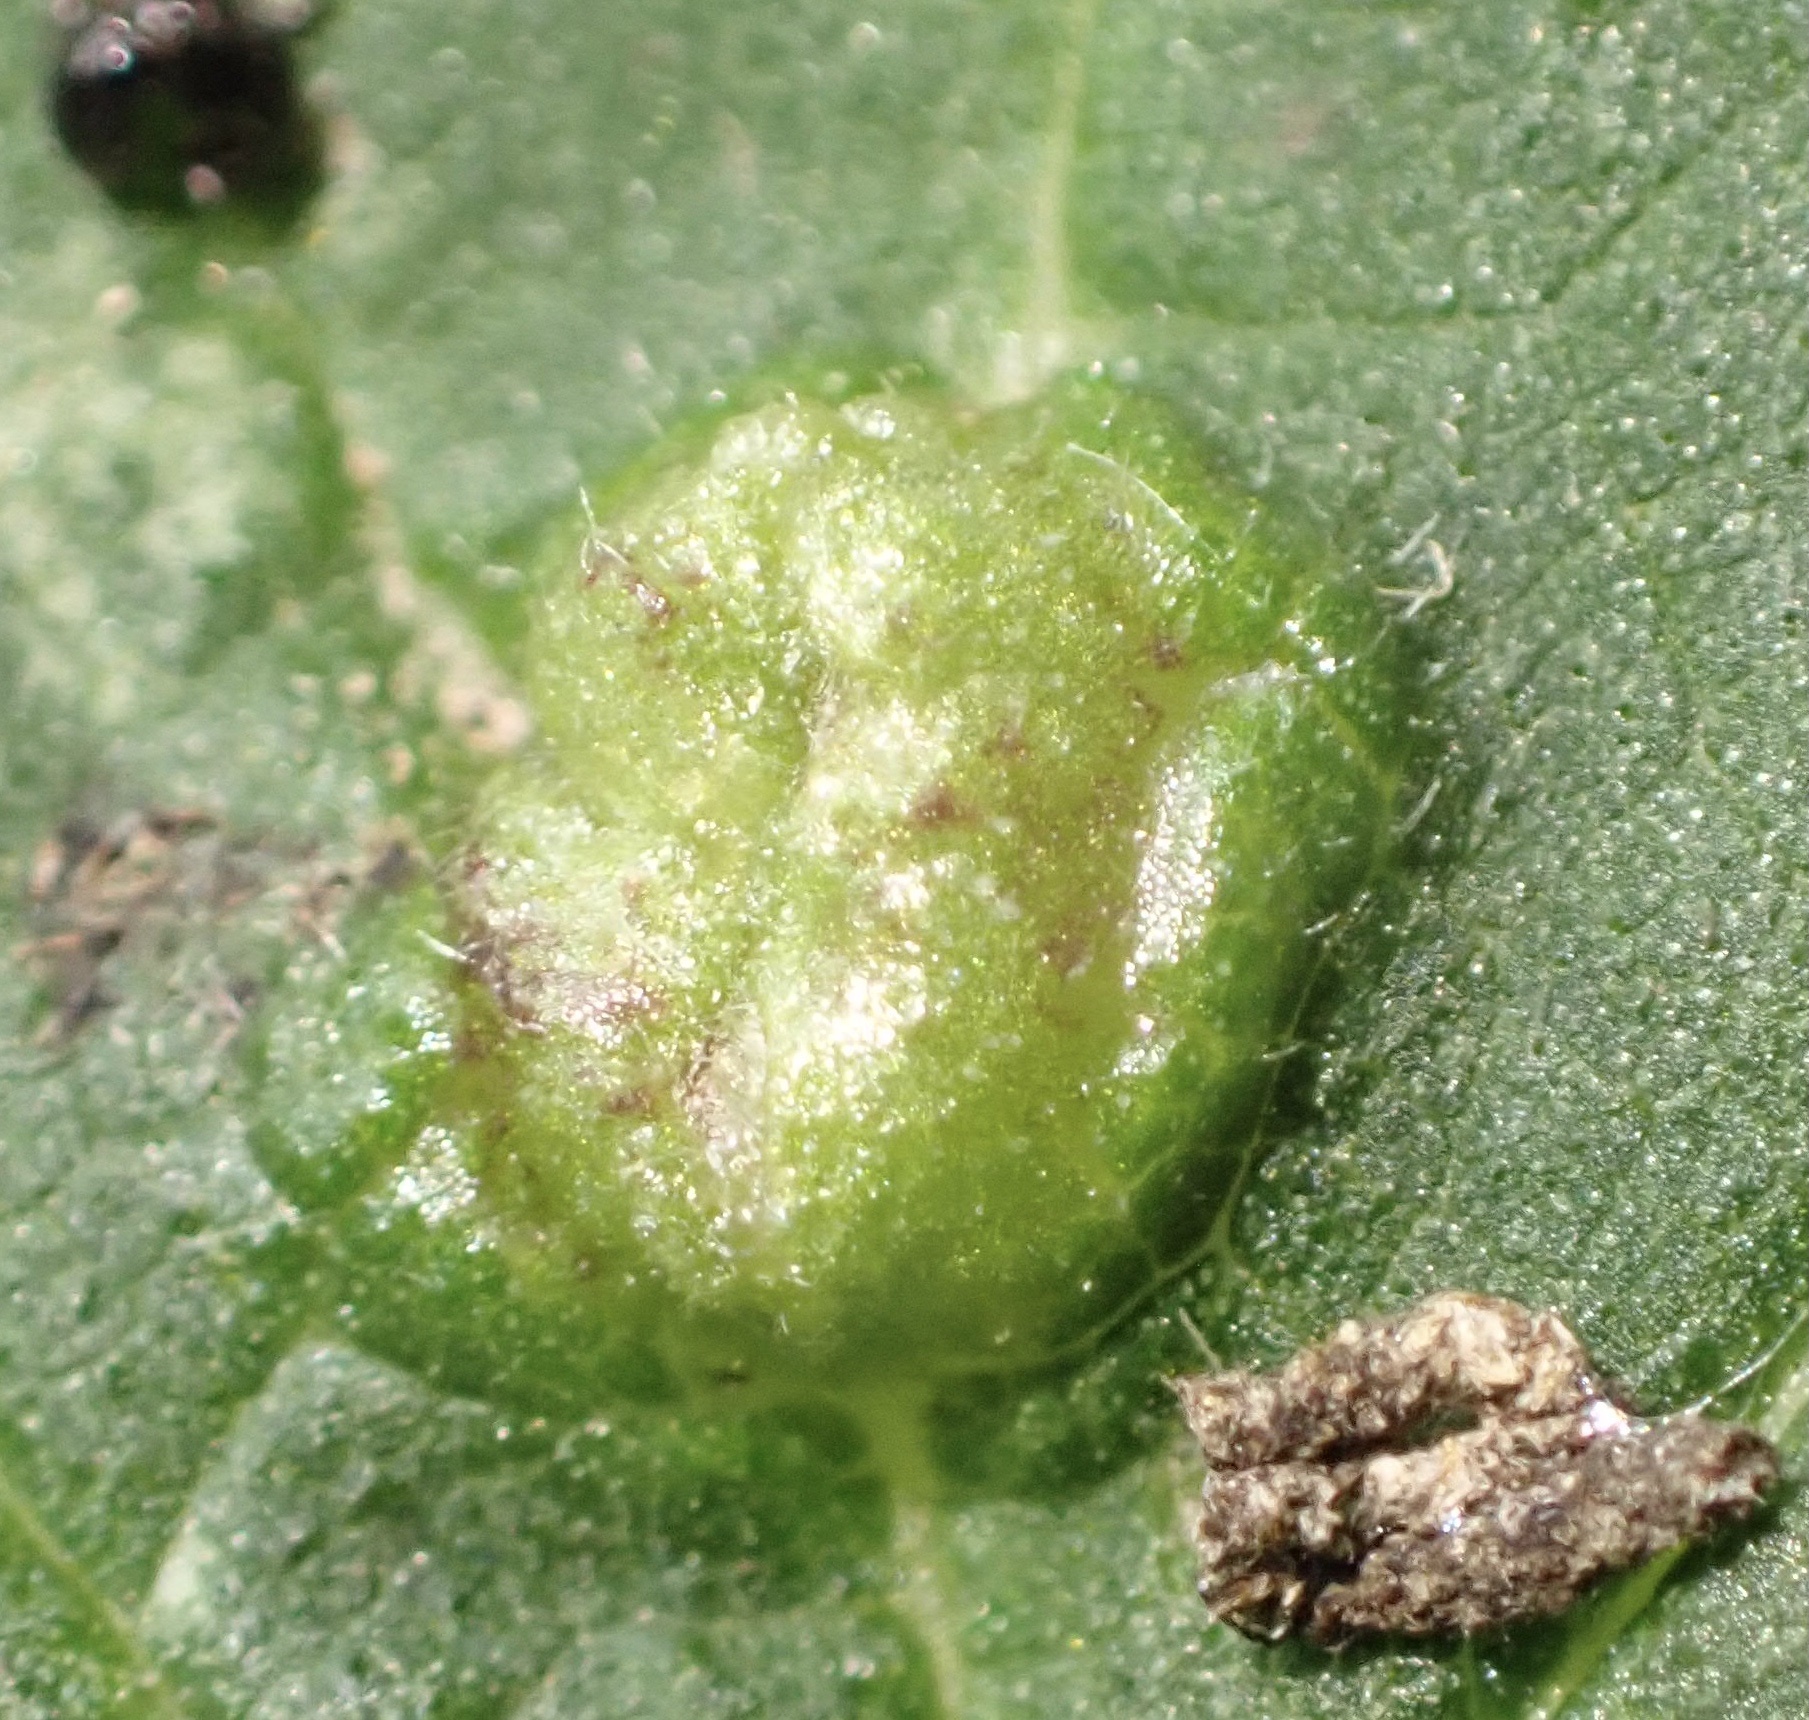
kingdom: Animalia
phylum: Arthropoda
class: Insecta
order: Diptera
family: Cecidomyiidae
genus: Dasineura
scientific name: Dasineura urticae
